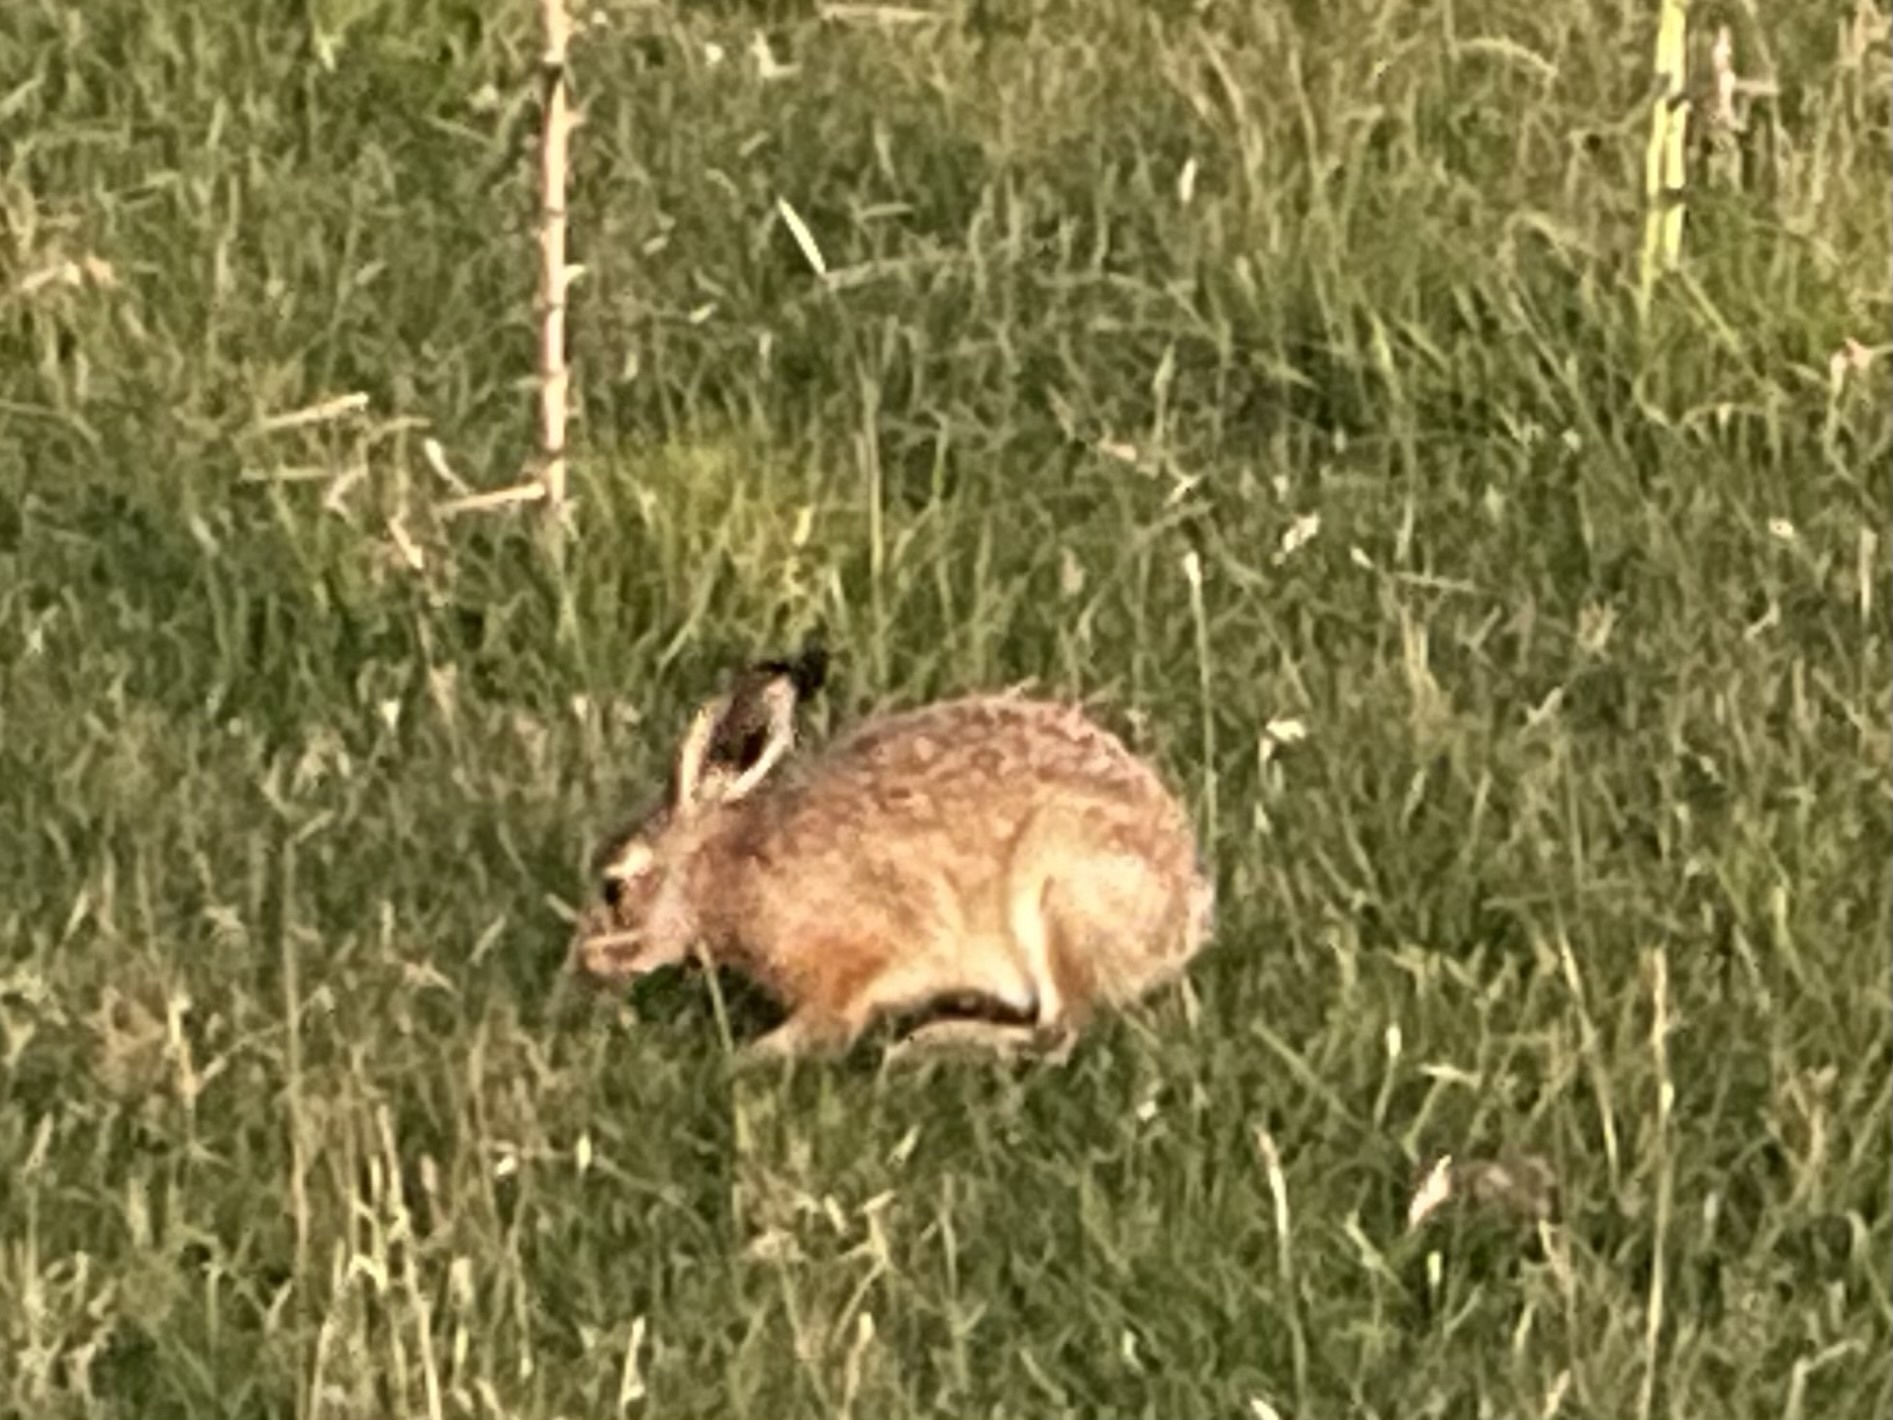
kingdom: Animalia
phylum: Chordata
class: Mammalia
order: Lagomorpha
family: Leporidae
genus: Lepus
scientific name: Lepus europaeus
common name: European hare
